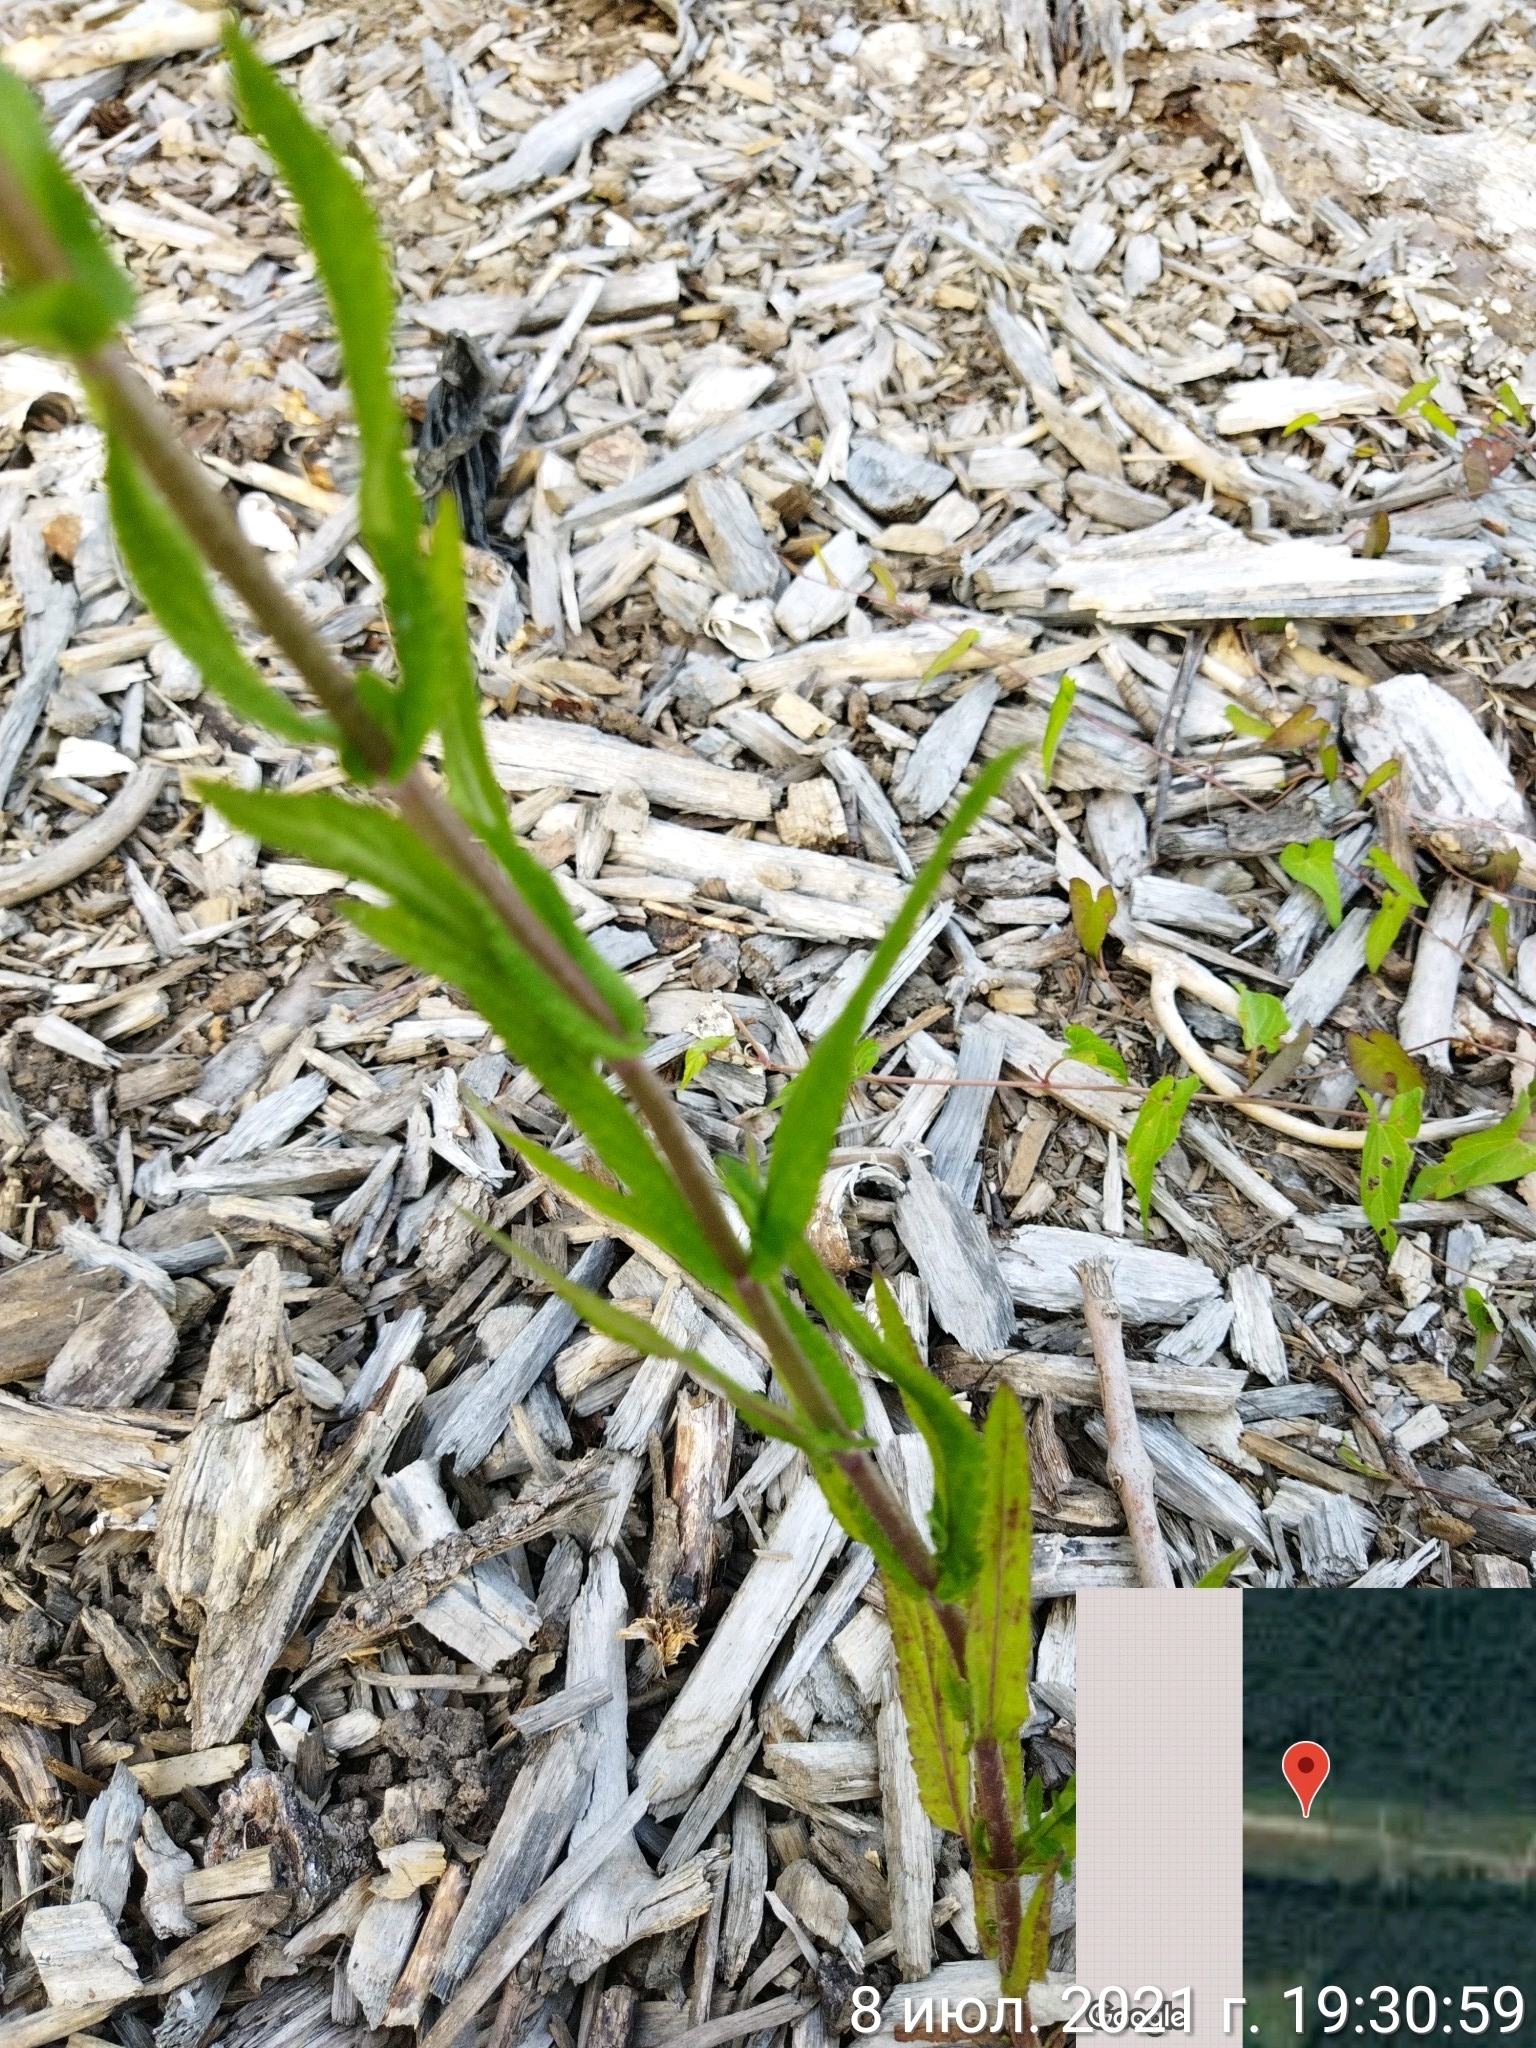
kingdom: Plantae
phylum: Tracheophyta
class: Magnoliopsida
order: Lamiales
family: Lamiaceae
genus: Stachys
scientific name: Stachys palustris
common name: Marsh woundwort
